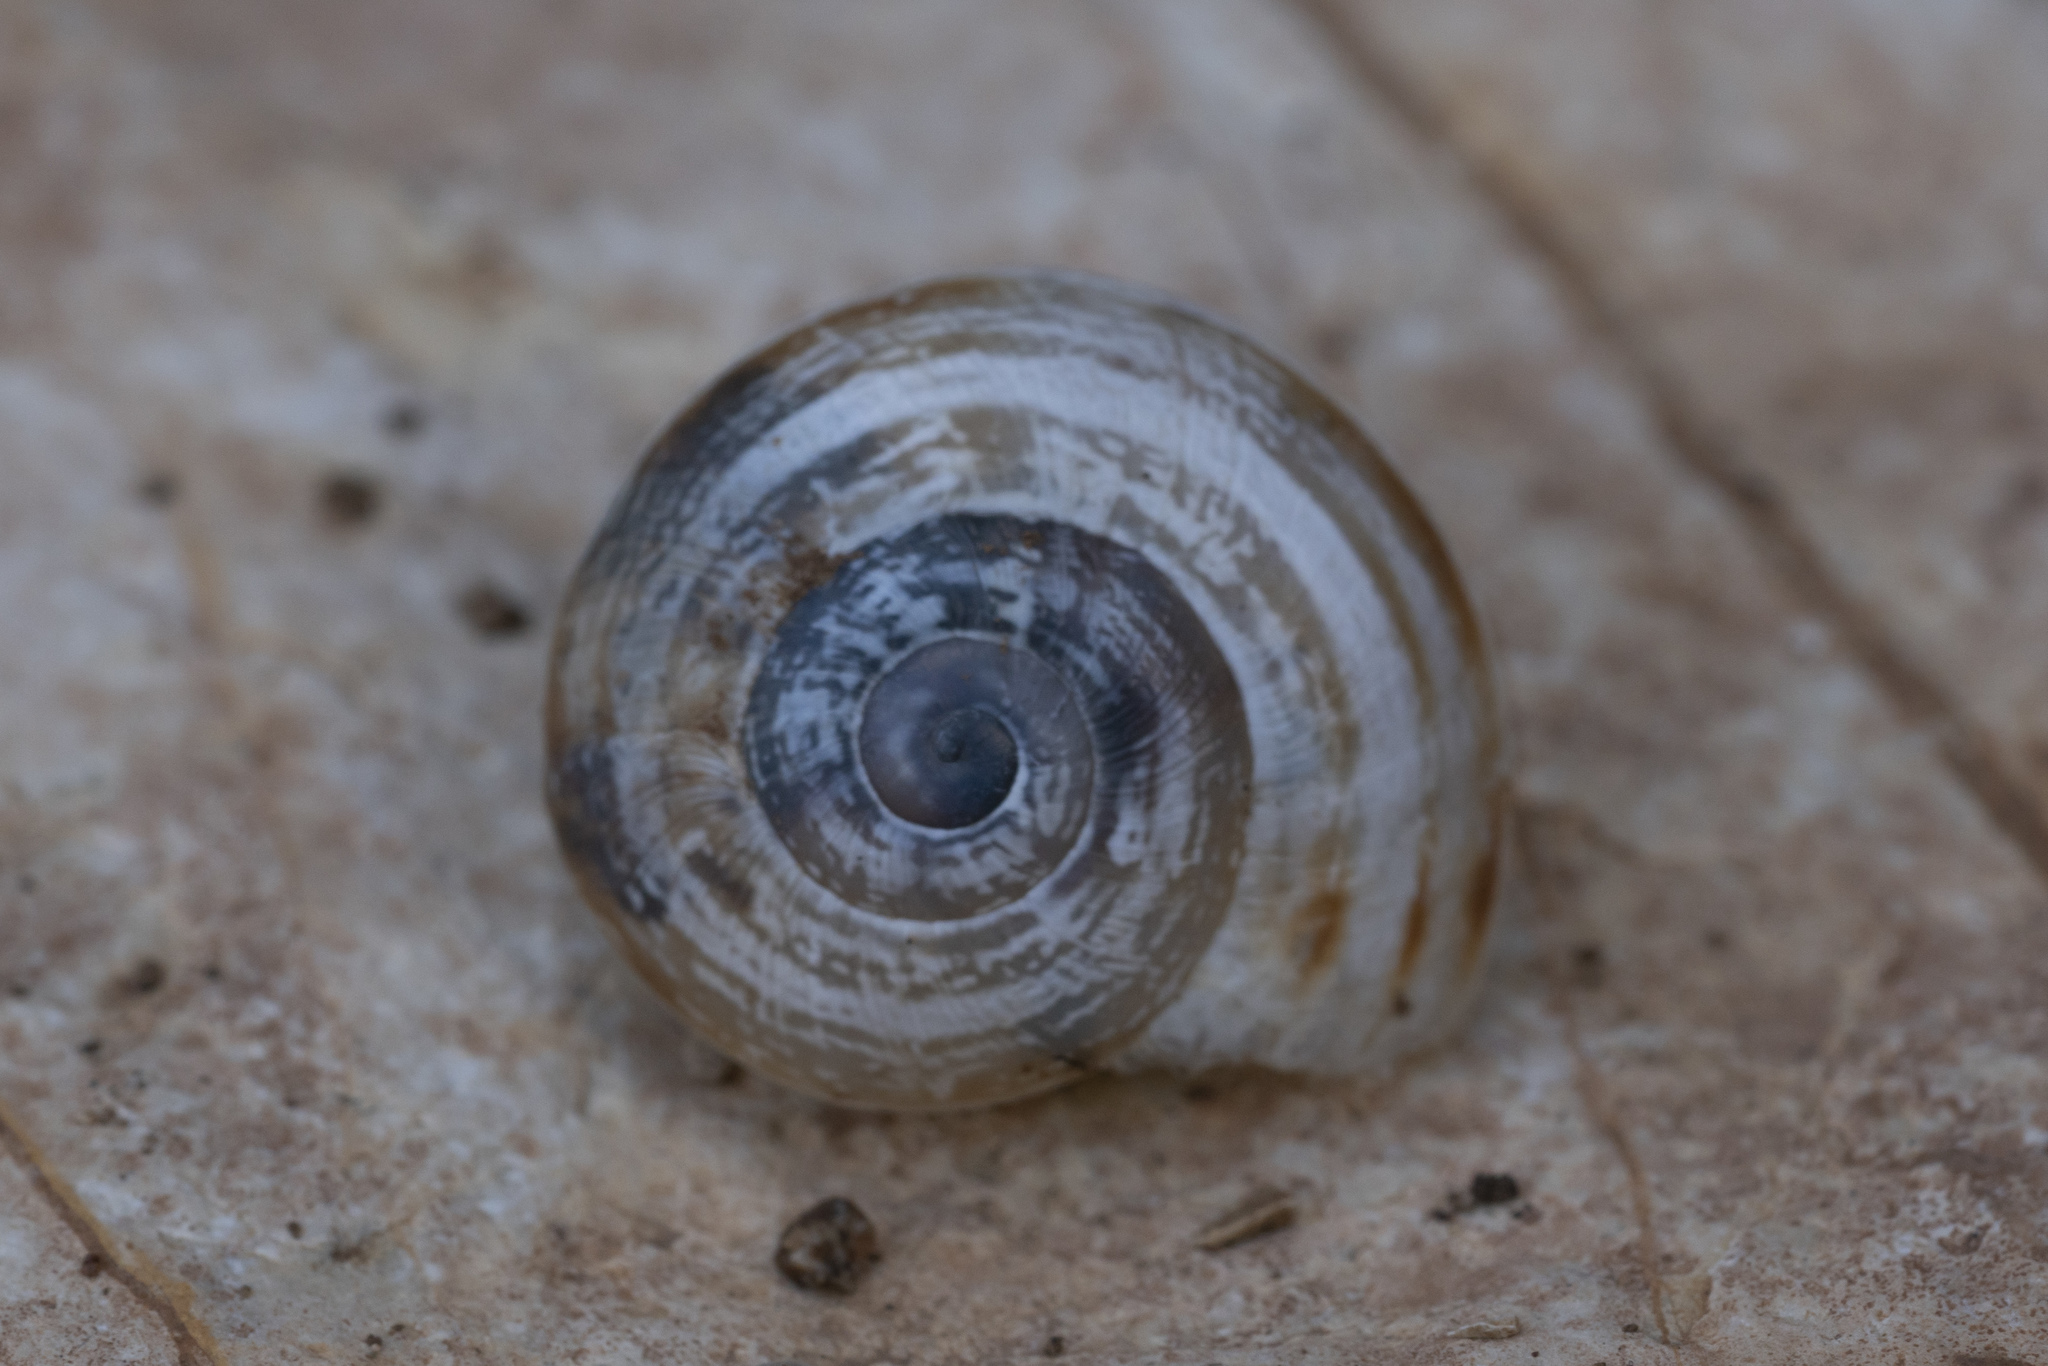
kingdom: Animalia
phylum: Mollusca
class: Gastropoda
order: Stylommatophora
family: Helicidae
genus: Eobania
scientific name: Eobania vermiculata
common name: Chocolateband snail
